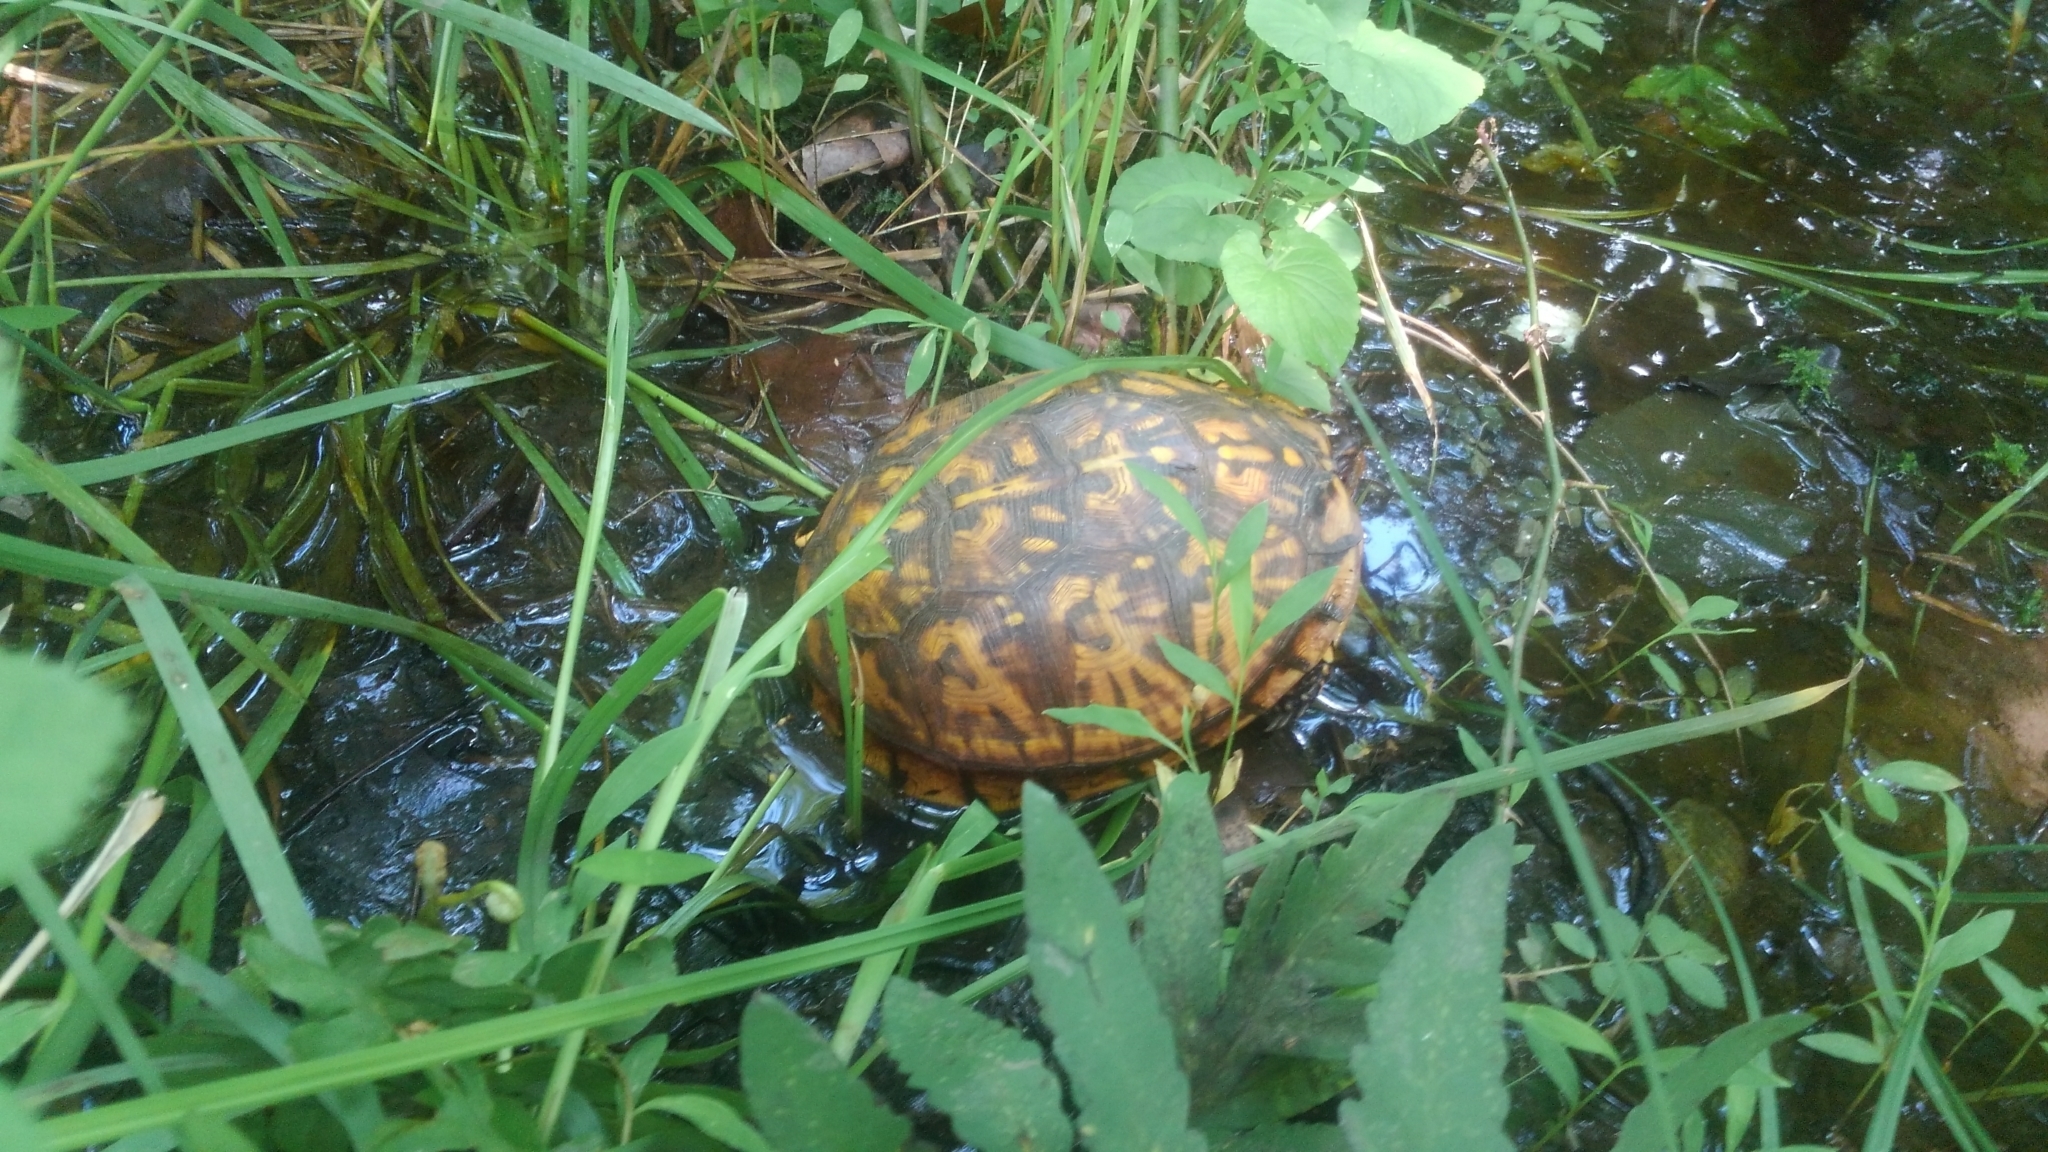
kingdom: Animalia
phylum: Chordata
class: Testudines
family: Emydidae
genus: Terrapene
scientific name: Terrapene carolina
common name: Common box turtle
